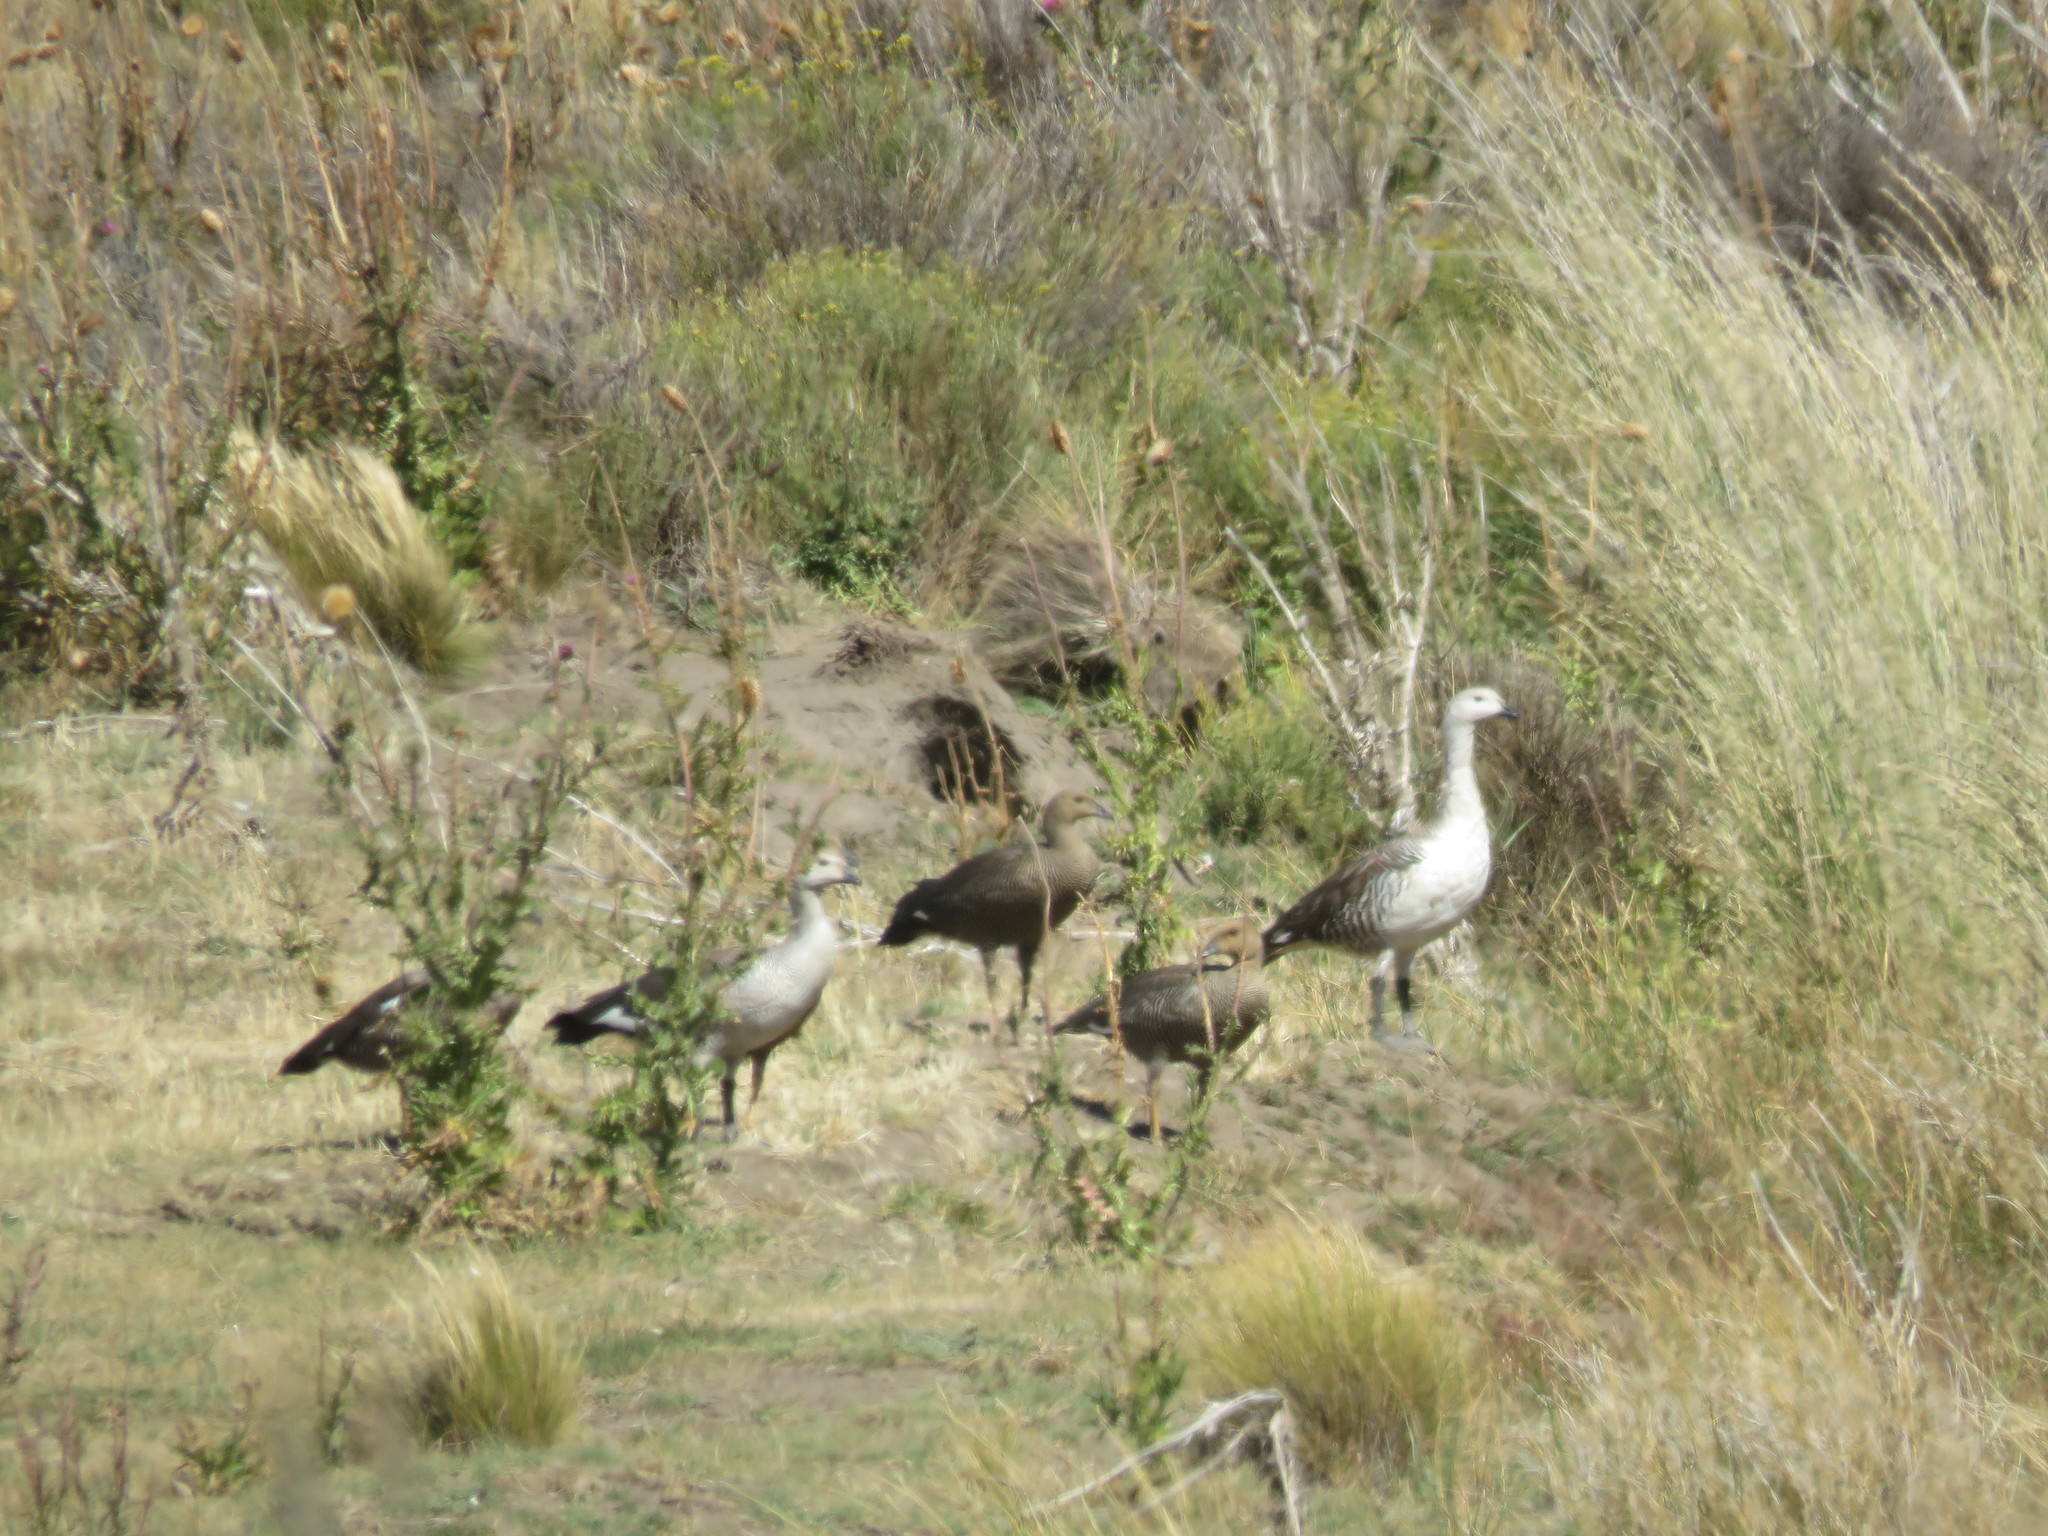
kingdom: Animalia
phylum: Chordata
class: Aves
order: Anseriformes
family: Anatidae
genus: Chloephaga
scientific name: Chloephaga picta
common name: Upland goose
